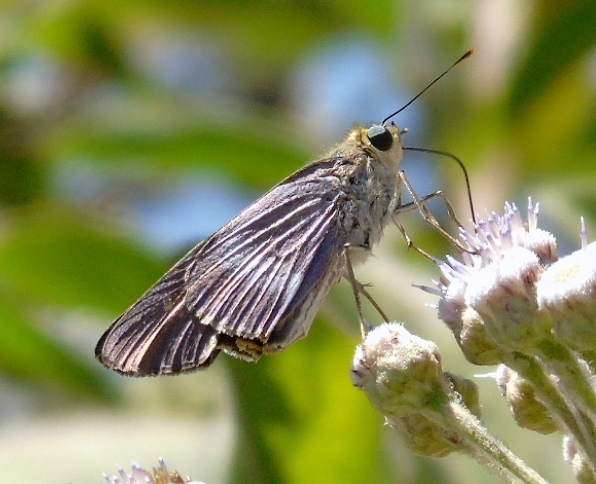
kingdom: Animalia
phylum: Arthropoda
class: Insecta
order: Lepidoptera
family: Hesperiidae
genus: Panoquina
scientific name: Panoquina fusina
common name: Evans' skipper
